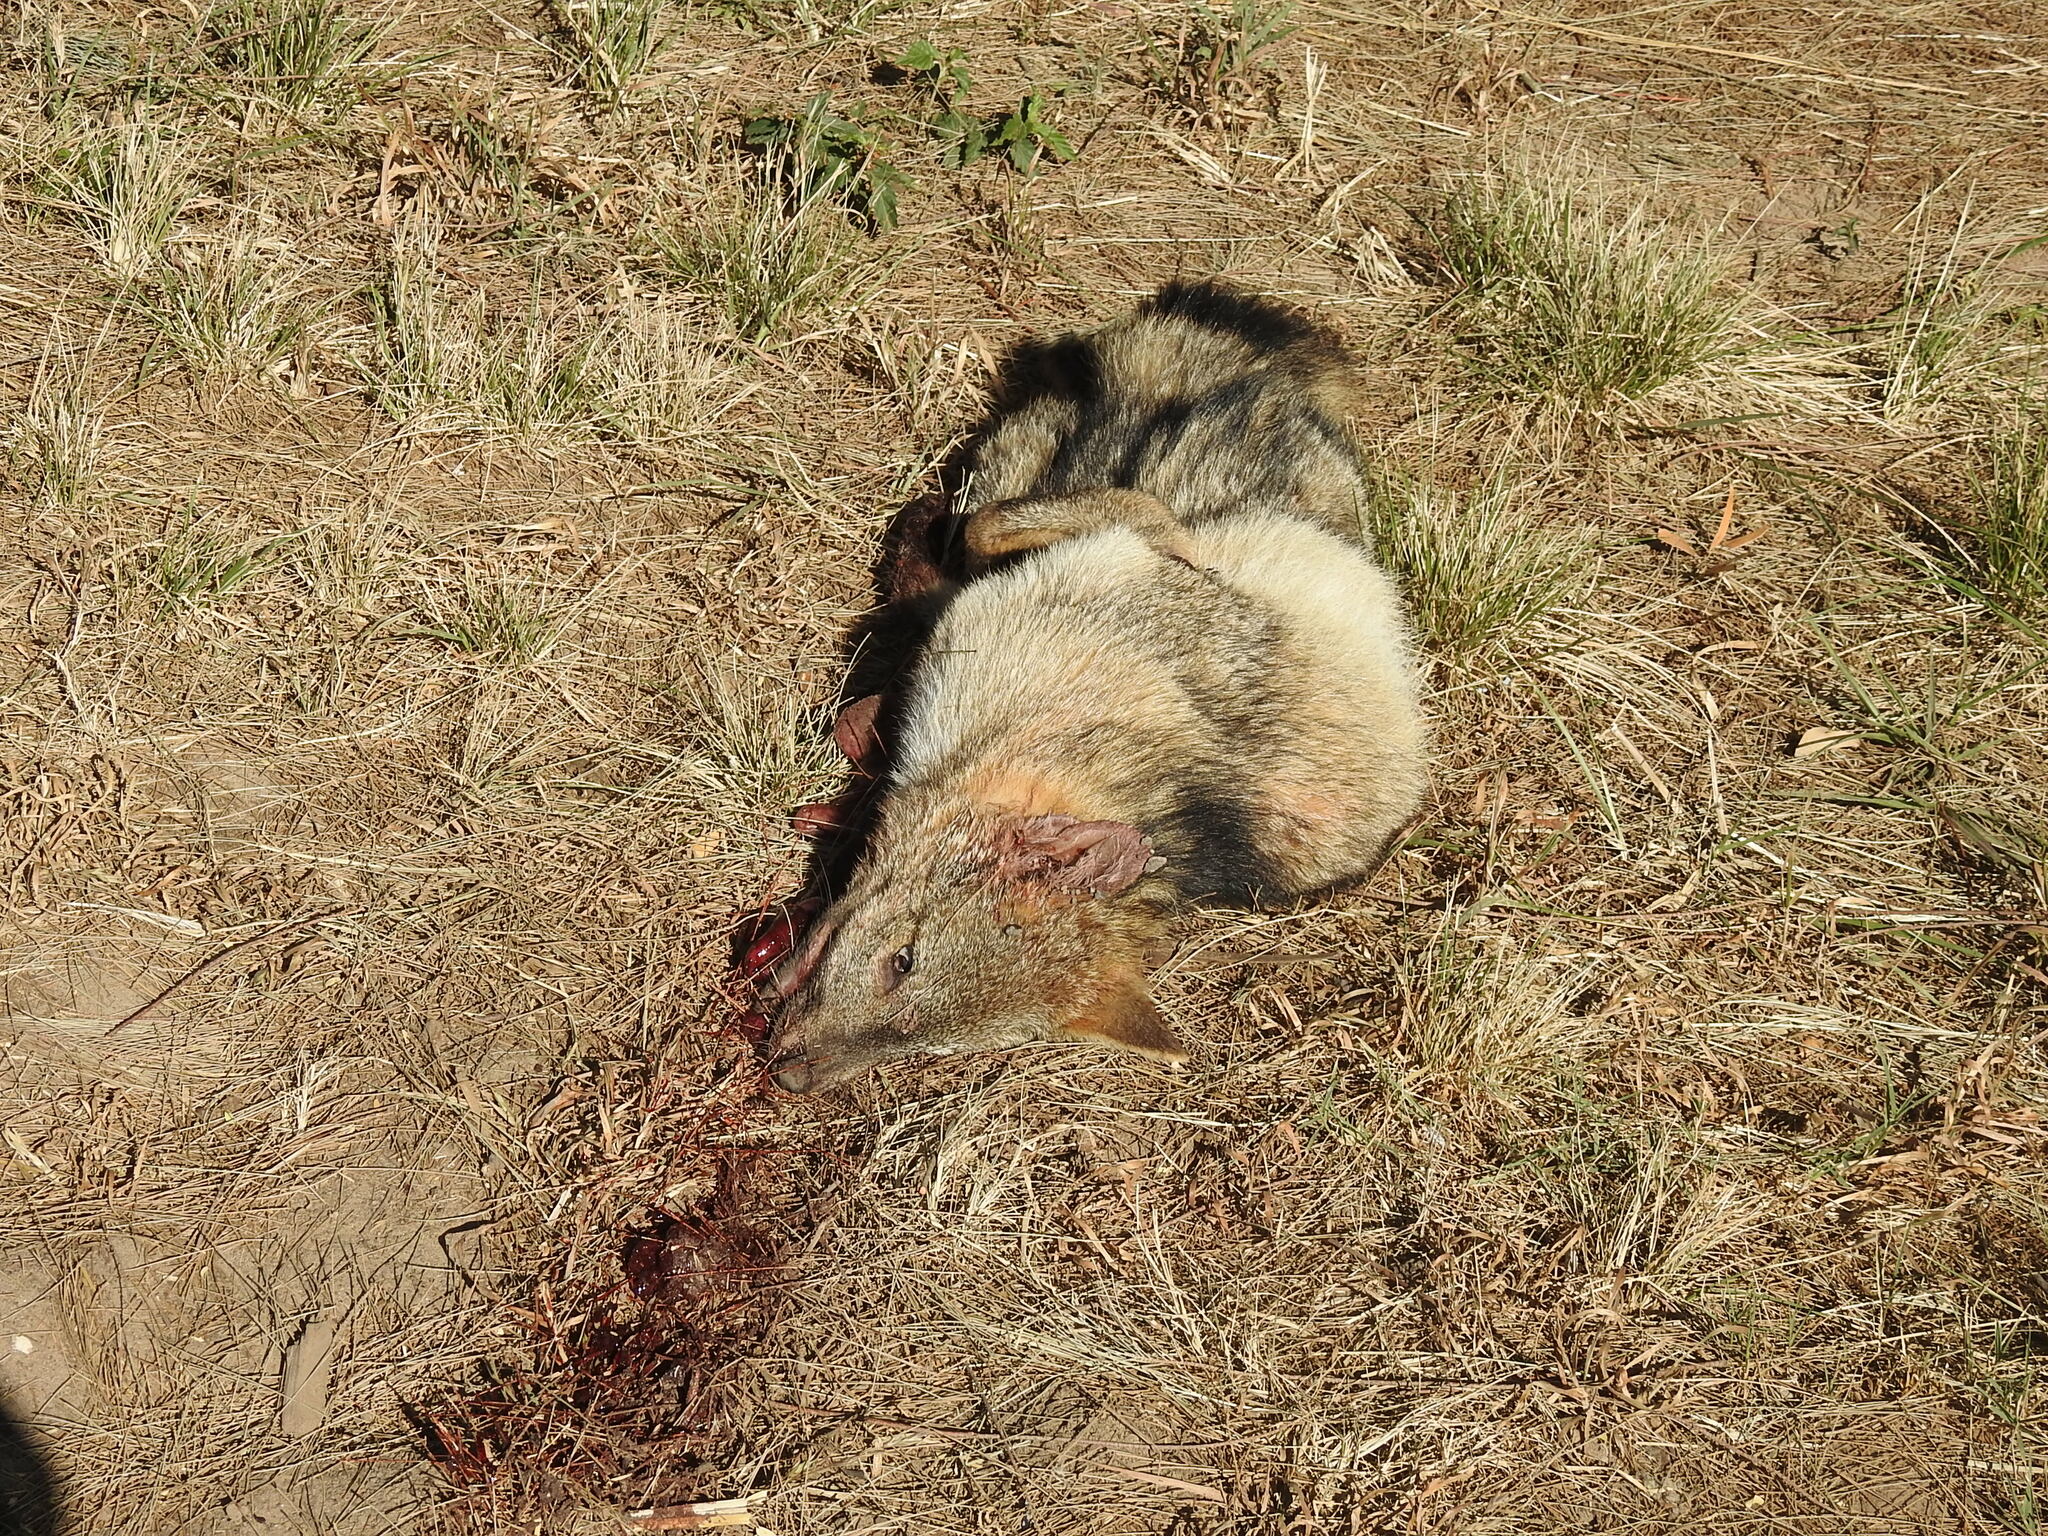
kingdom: Animalia
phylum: Chordata
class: Mammalia
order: Carnivora
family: Canidae
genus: Lycalopex
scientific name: Lycalopex gymnocercus
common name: Pampas fox
